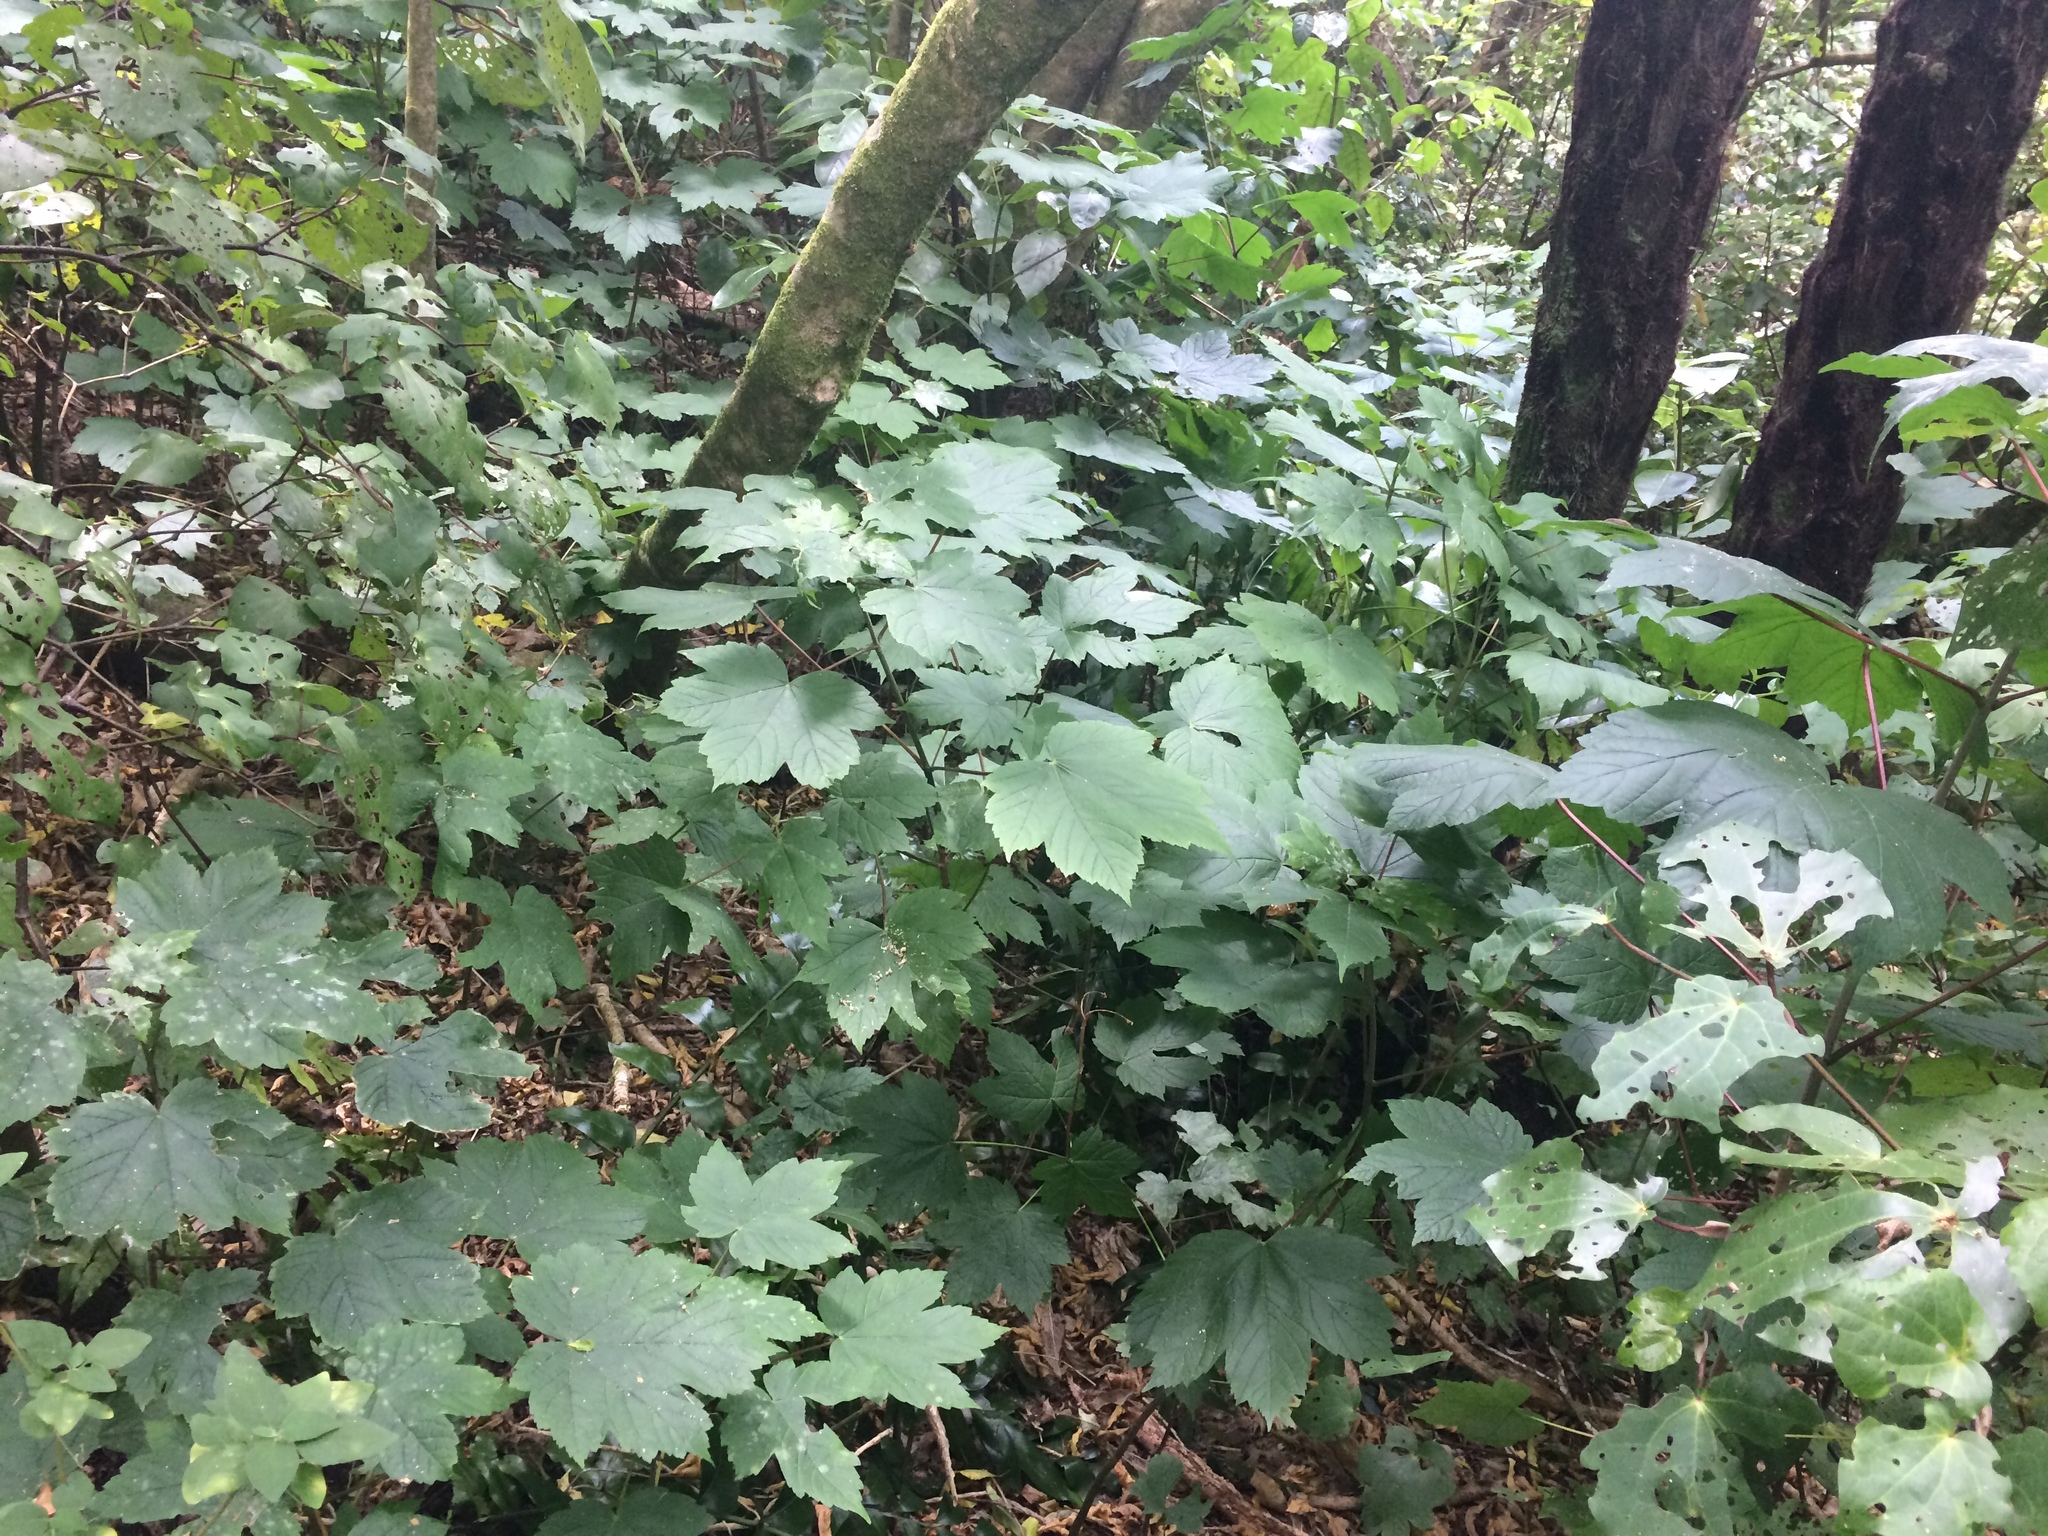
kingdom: Plantae
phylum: Tracheophyta
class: Magnoliopsida
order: Sapindales
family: Sapindaceae
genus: Acer
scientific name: Acer pseudoplatanus
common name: Sycamore
